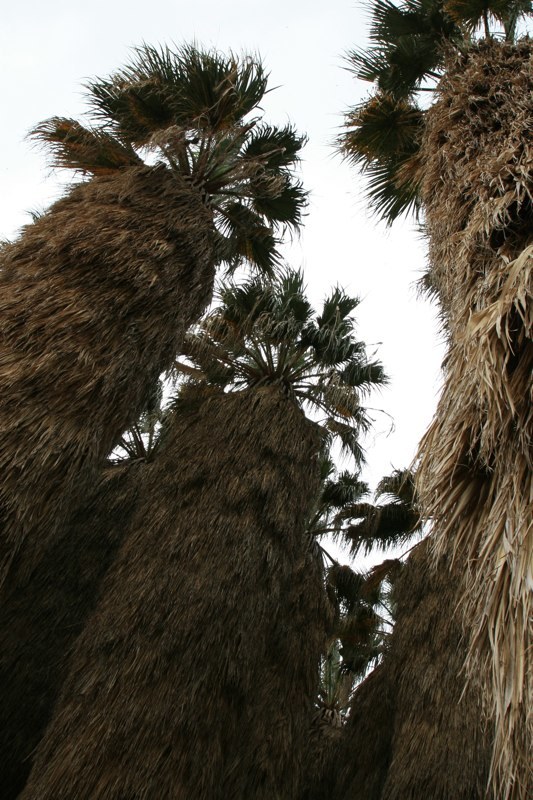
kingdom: Plantae
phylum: Tracheophyta
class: Liliopsida
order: Arecales
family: Arecaceae
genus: Washingtonia
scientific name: Washingtonia filifera
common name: California fan palm
